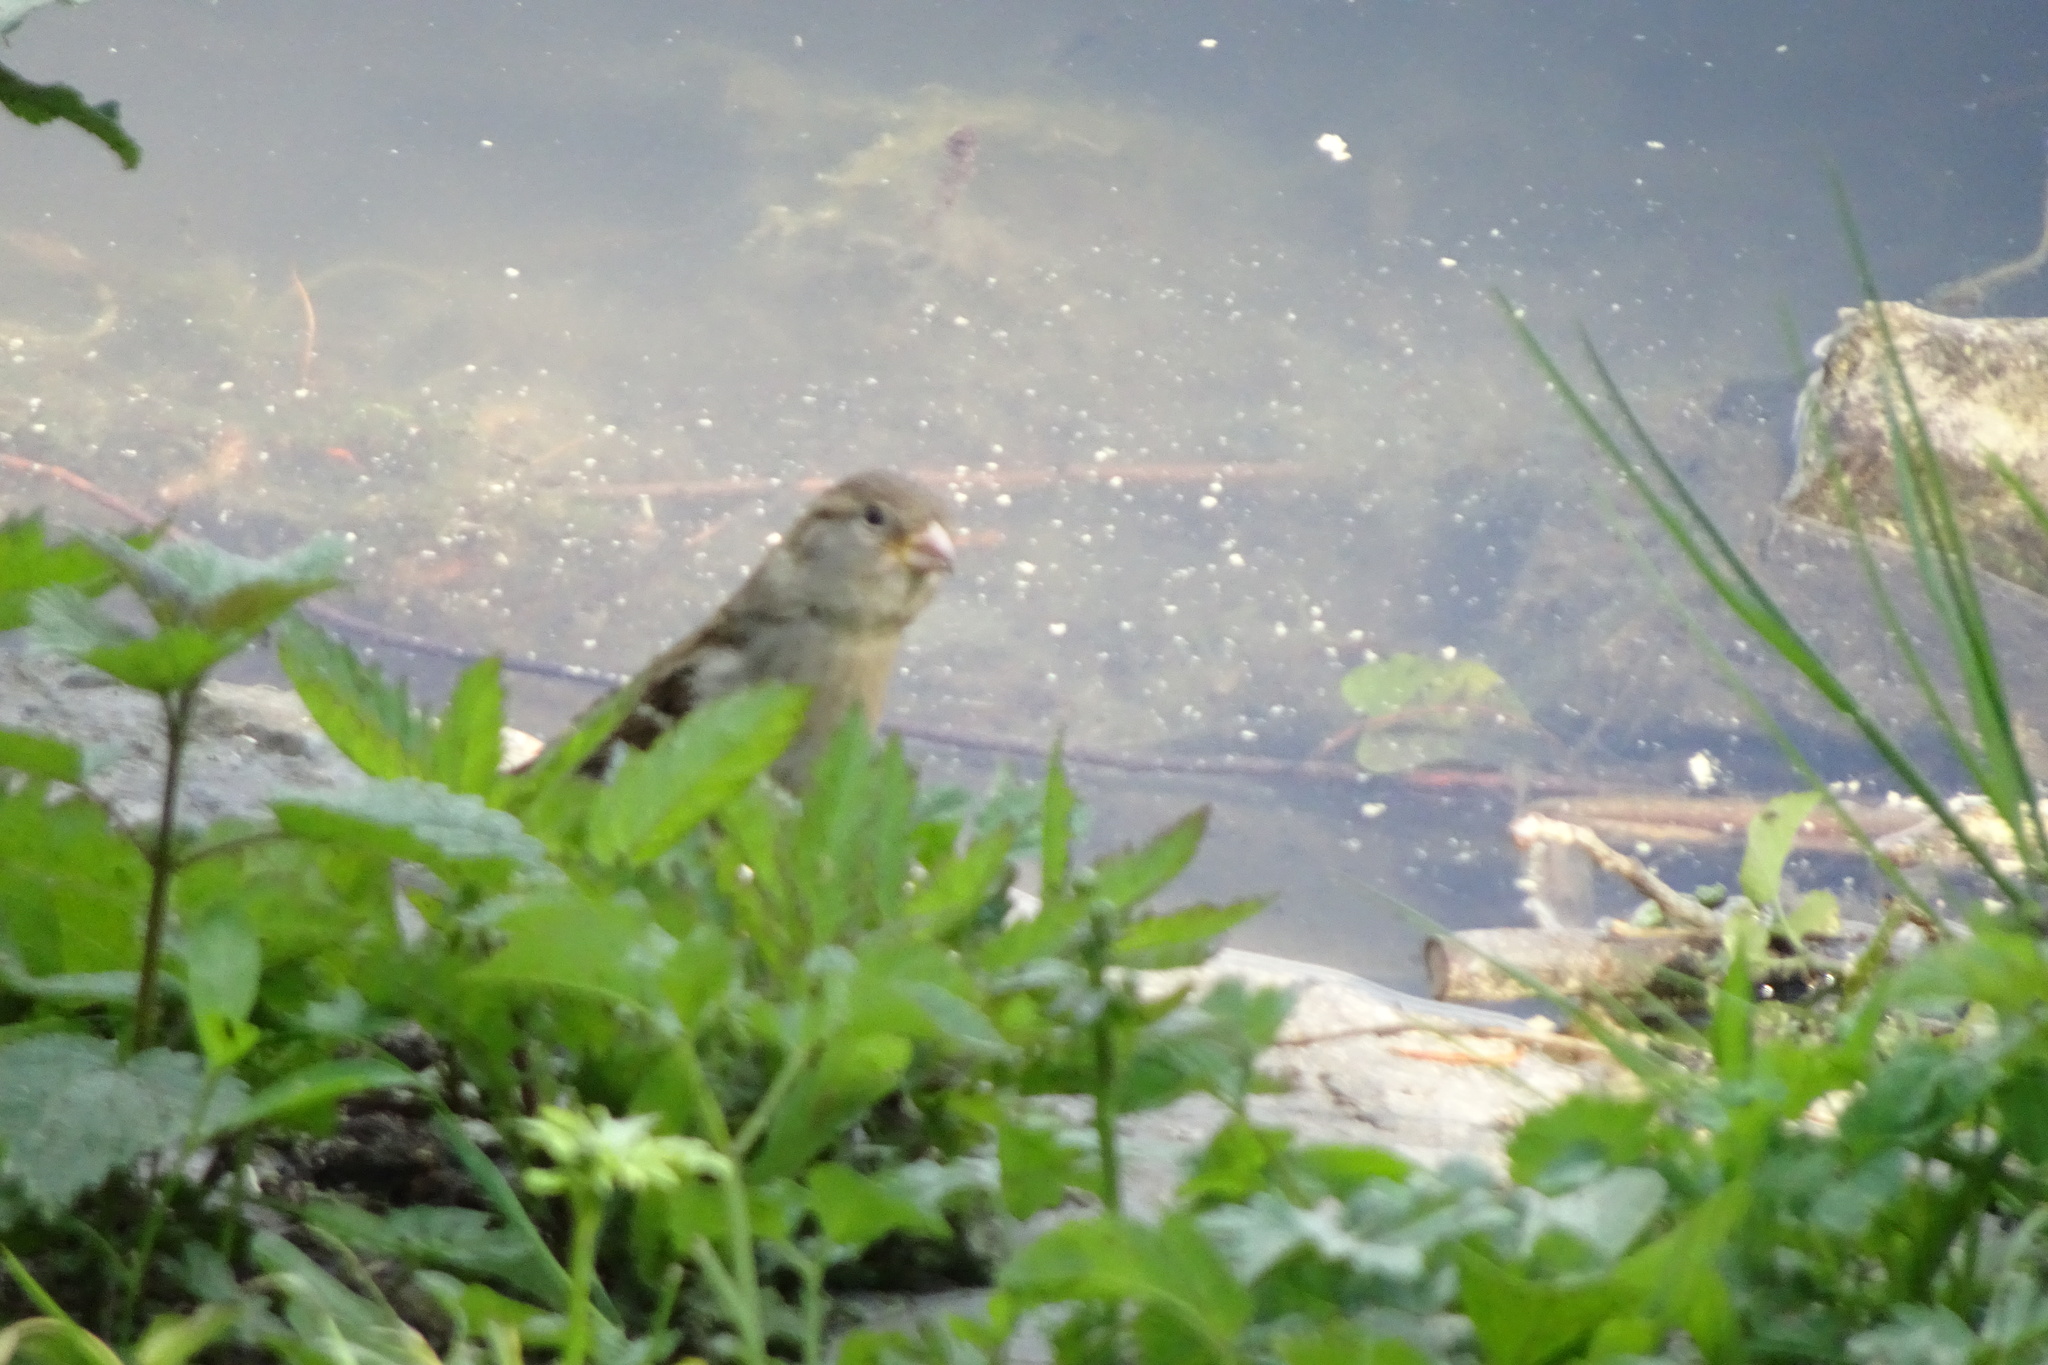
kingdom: Animalia
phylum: Chordata
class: Aves
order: Passeriformes
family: Passeridae
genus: Passer
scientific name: Passer domesticus
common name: House sparrow
